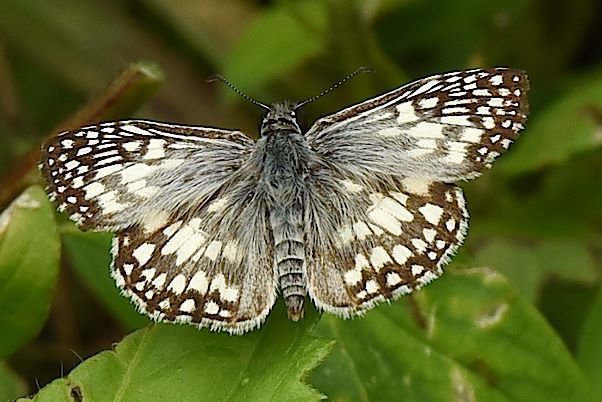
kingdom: Animalia
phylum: Arthropoda
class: Insecta
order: Lepidoptera
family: Hesperiidae
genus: Pyrgus
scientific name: Pyrgus oileus
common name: Tropical checkered-skipper
